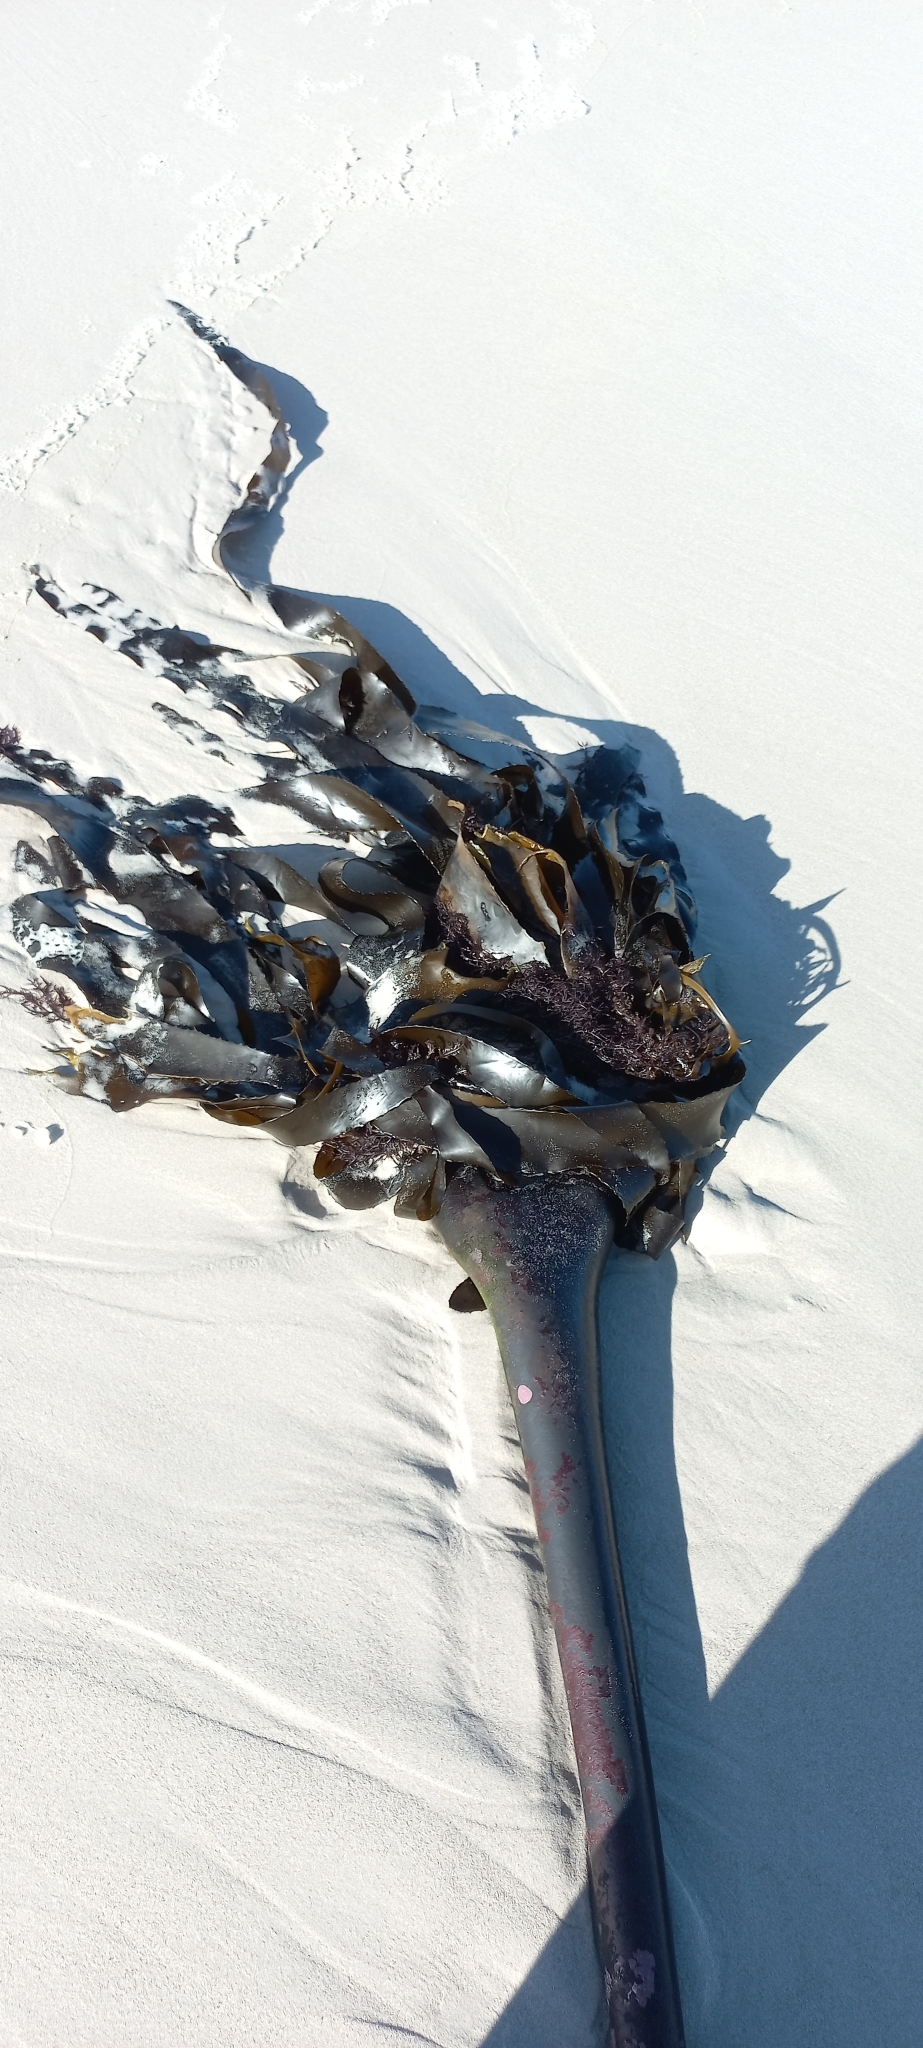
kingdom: Chromista
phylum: Ochrophyta
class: Phaeophyceae
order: Fucales
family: Sargassaceae
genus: Anthophycus
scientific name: Anthophycus
